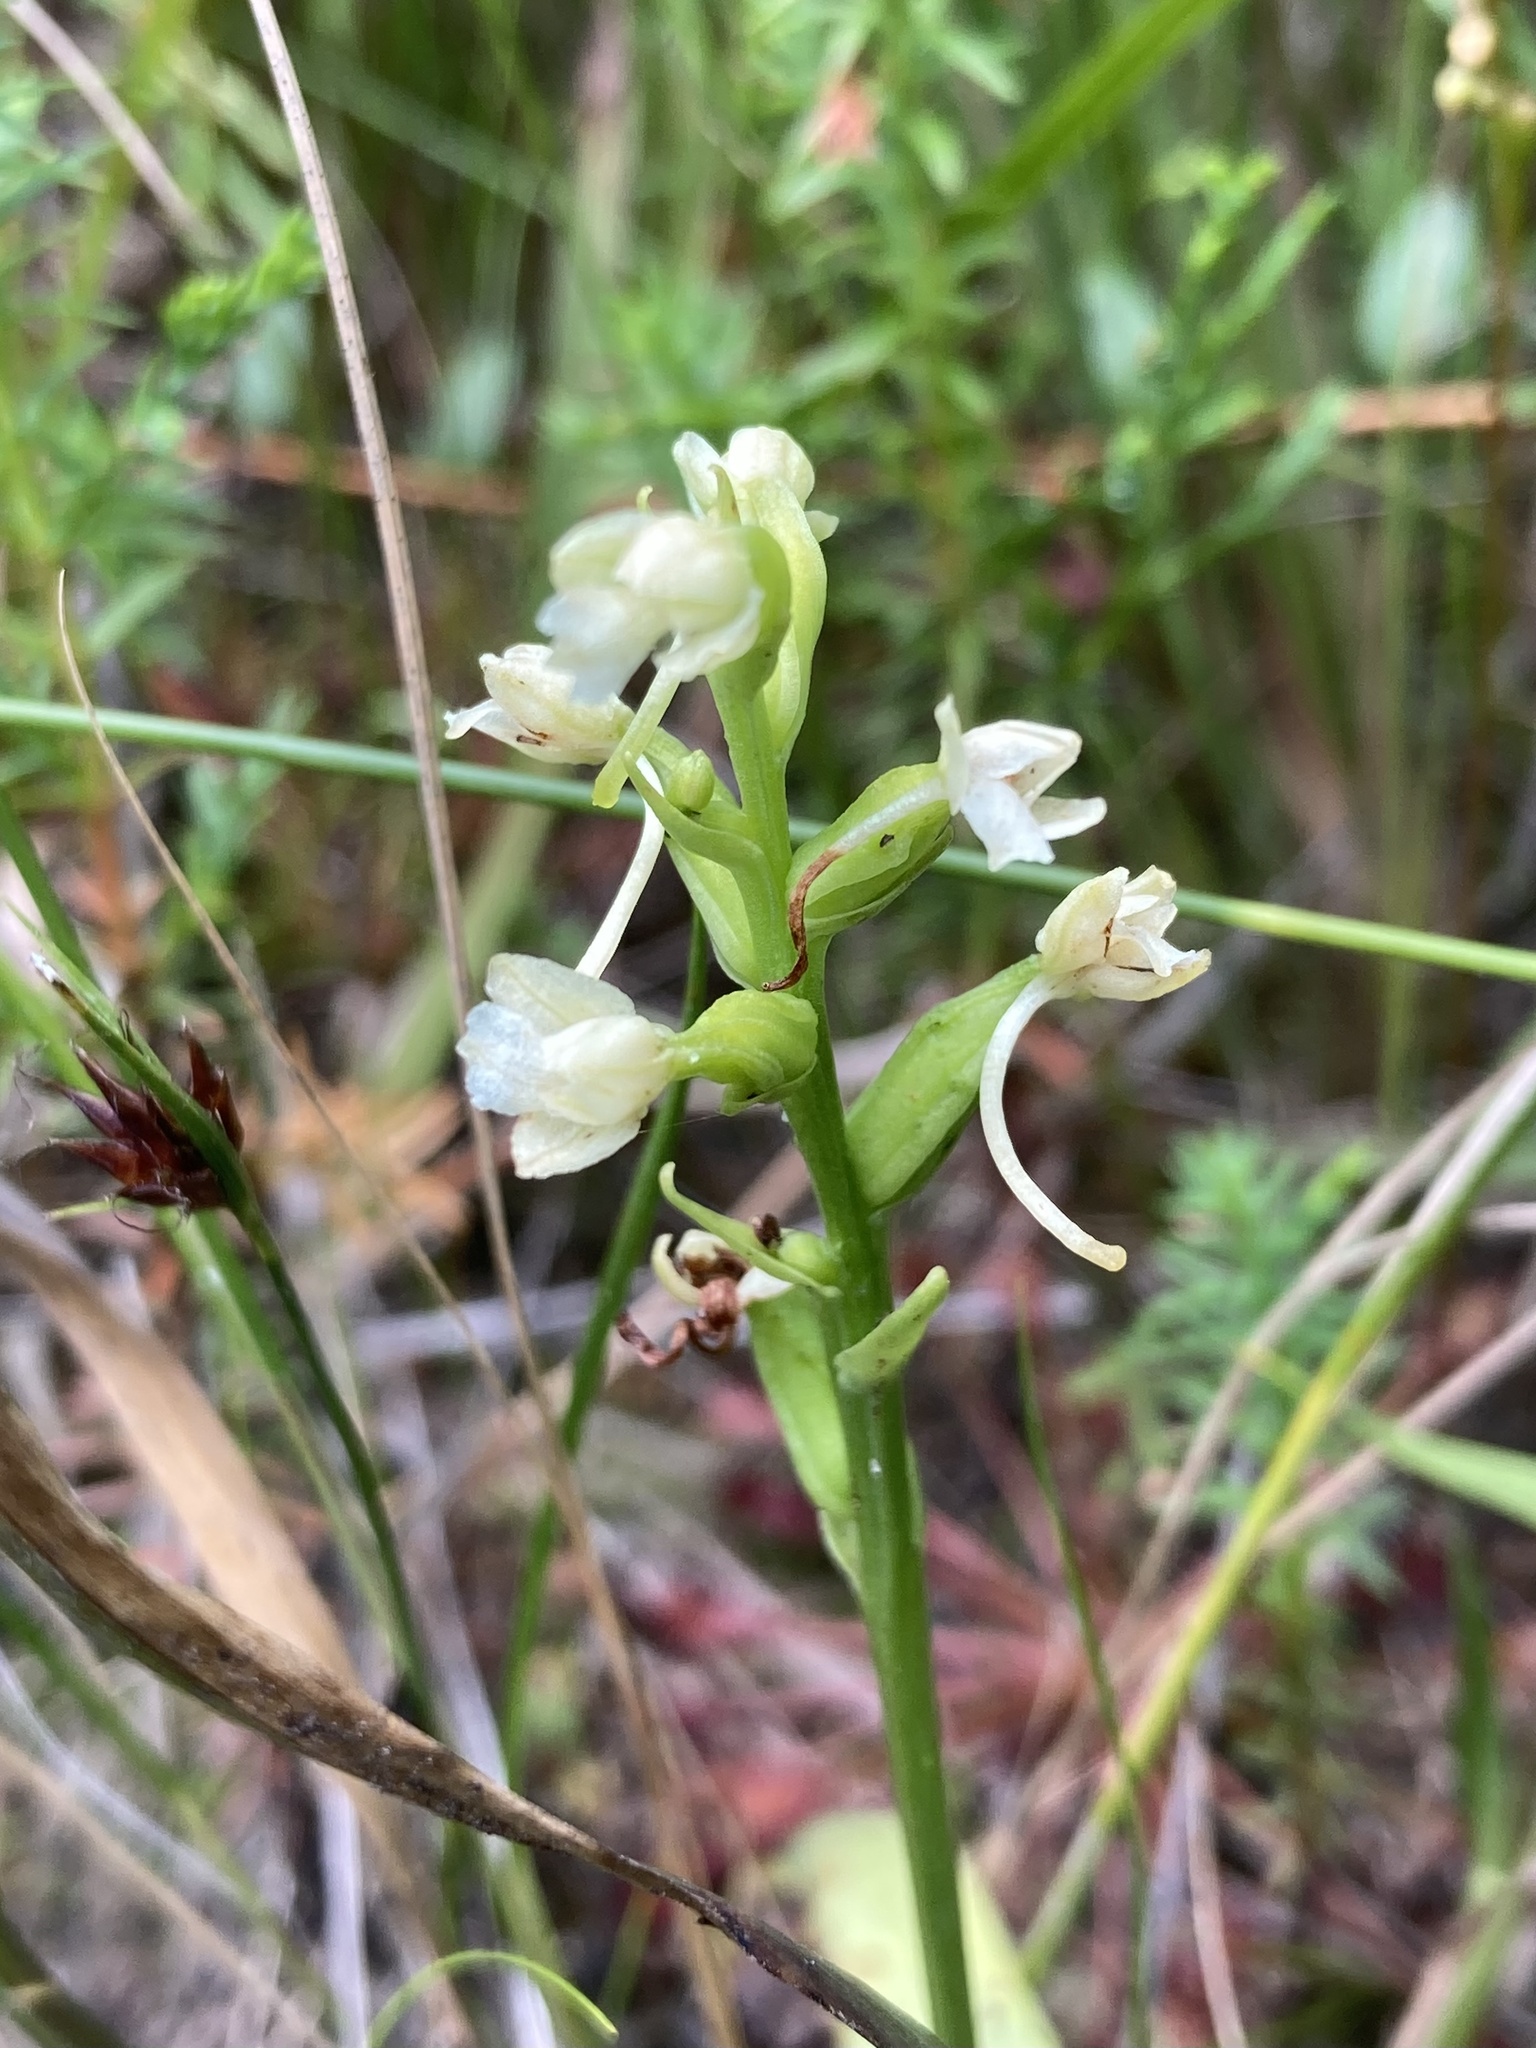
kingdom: Plantae
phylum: Tracheophyta
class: Liliopsida
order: Asparagales
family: Orchidaceae
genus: Platanthera
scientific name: Platanthera clavellata
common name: Club-spur orchid
